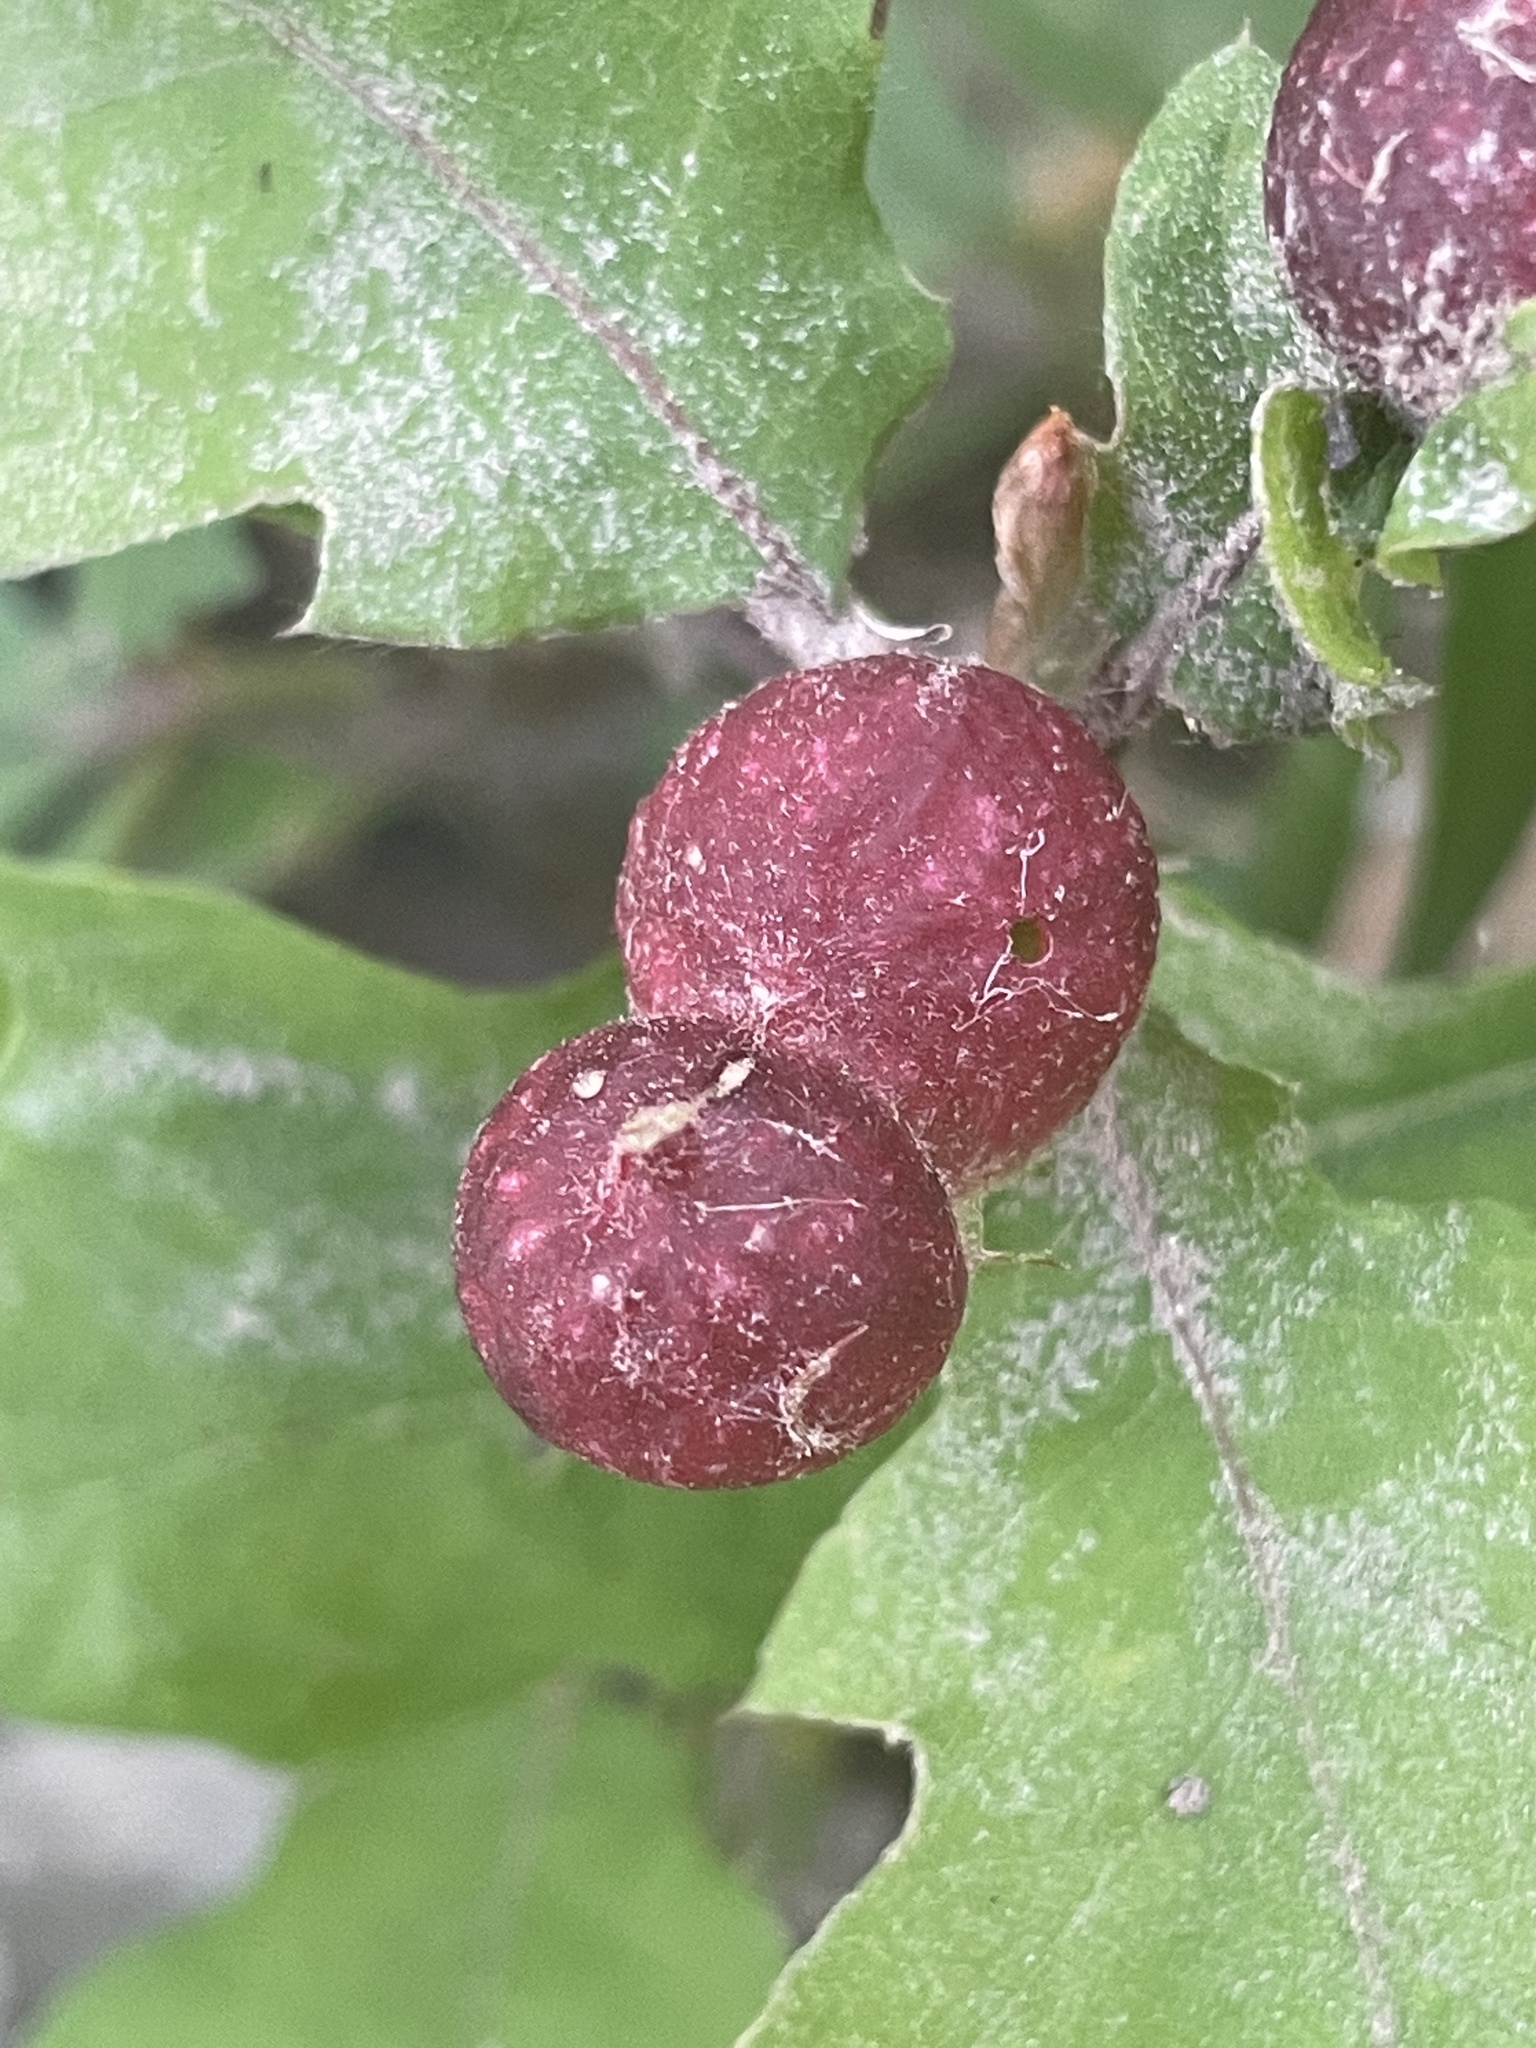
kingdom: Animalia
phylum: Arthropoda
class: Insecta
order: Hymenoptera
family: Cynipidae
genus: Dryocosmus
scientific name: Dryocosmus quercuspalustris
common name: Succulent oak gall wasp
